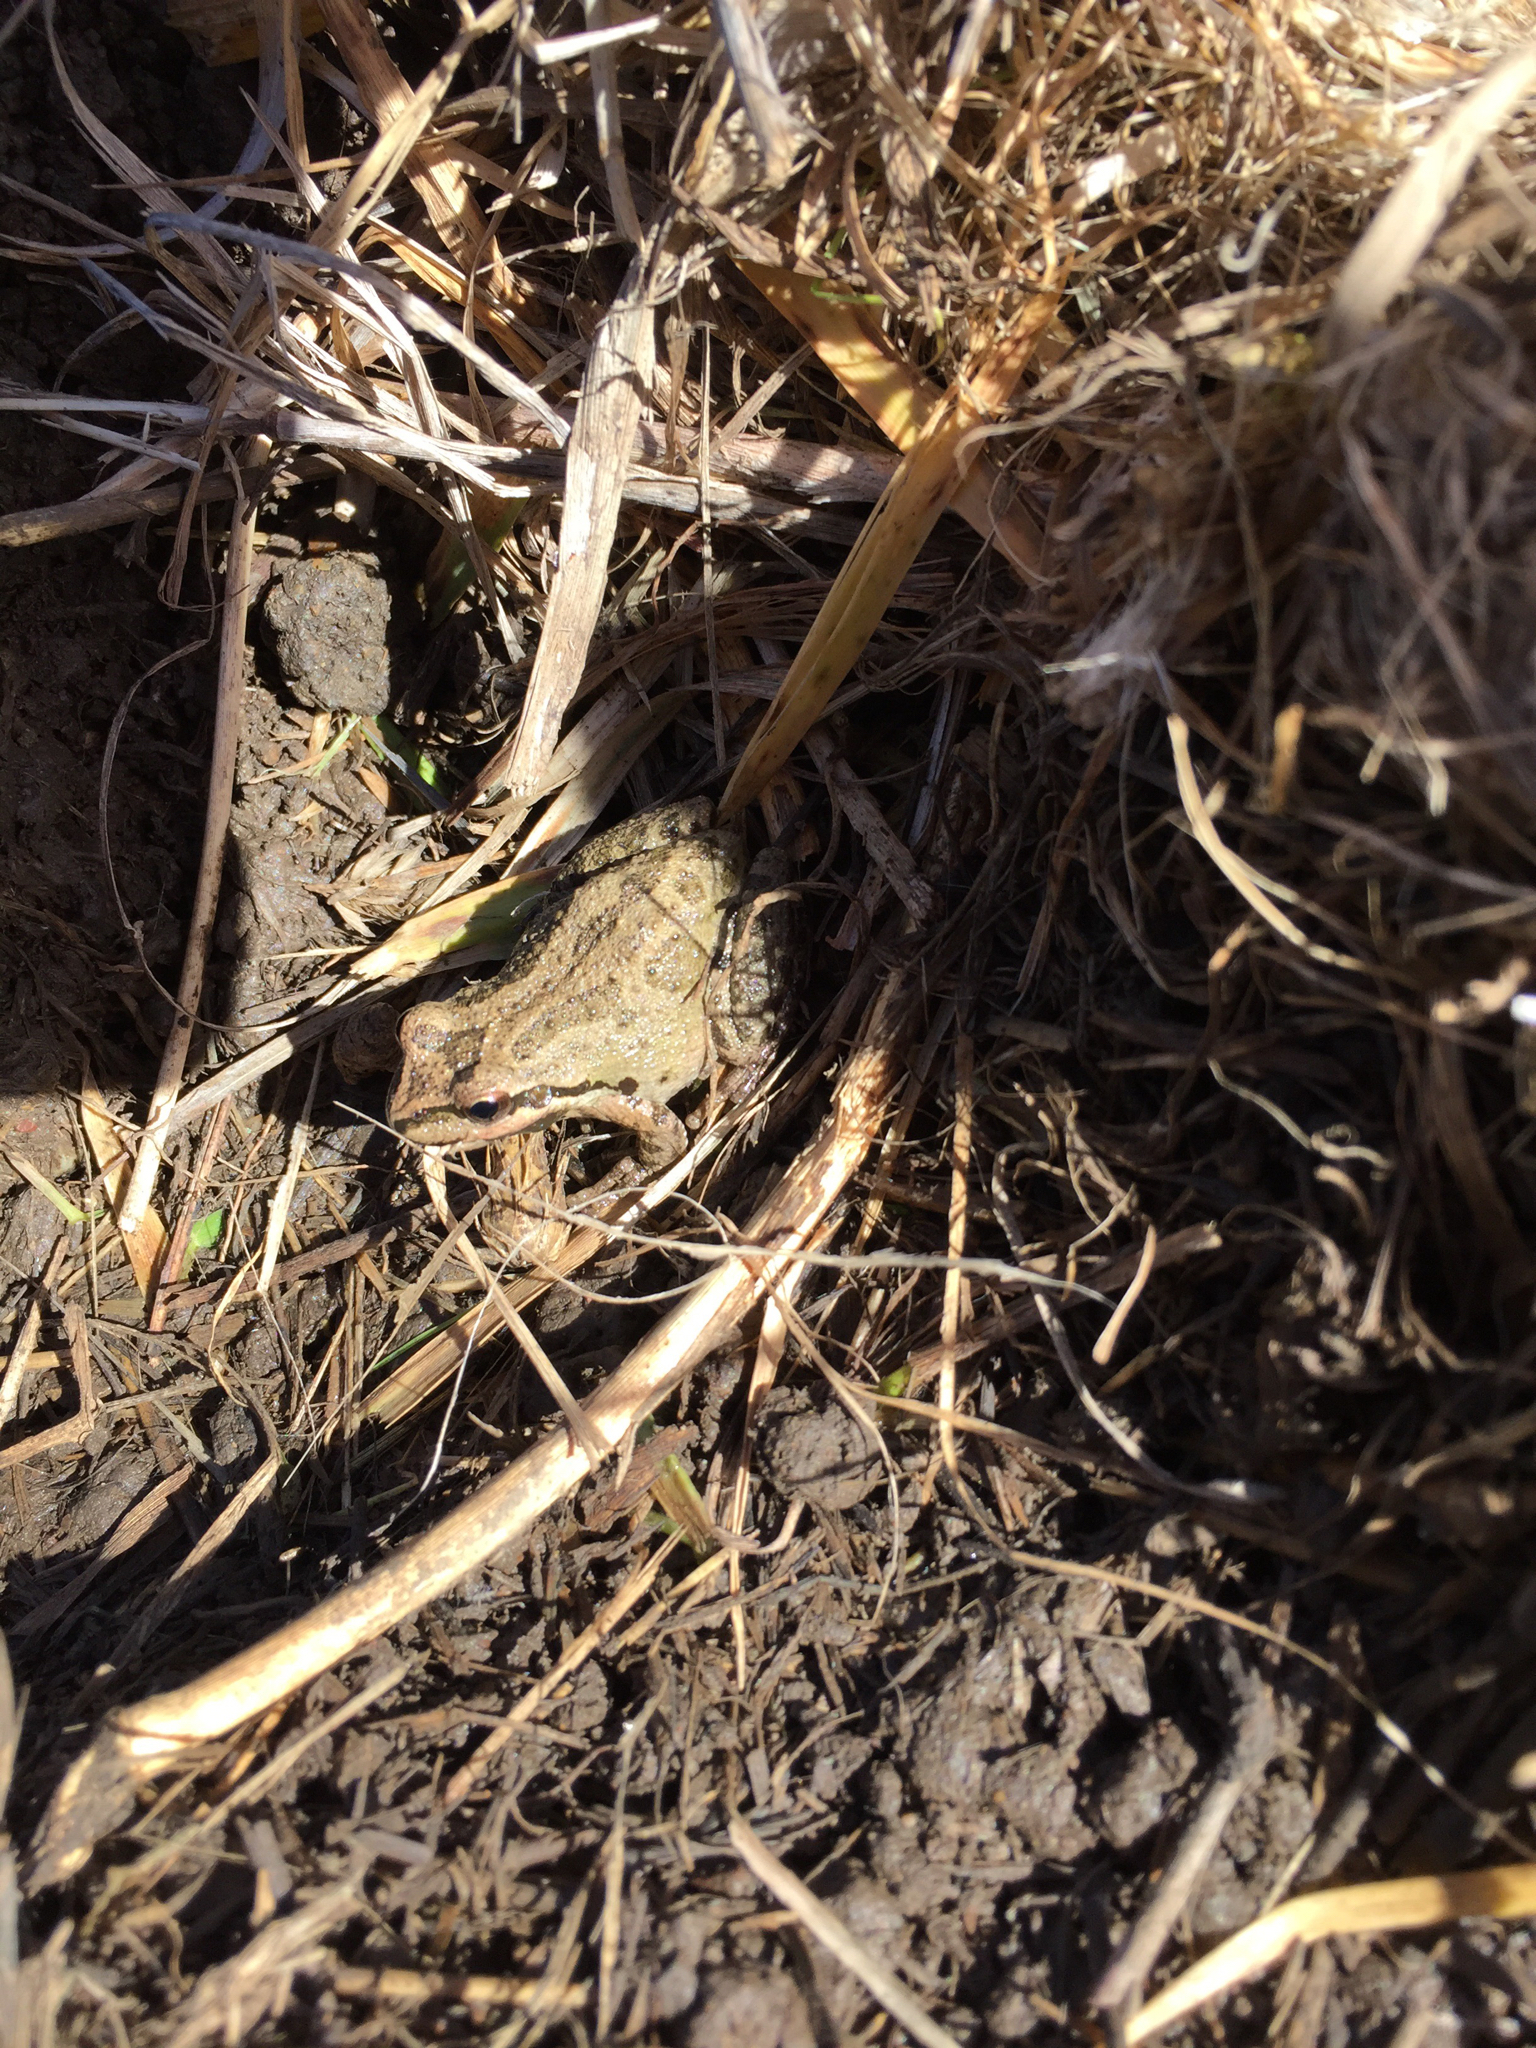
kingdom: Animalia
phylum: Chordata
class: Amphibia
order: Anura
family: Hylidae
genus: Pseudacris
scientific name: Pseudacris regilla
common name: Pacific chorus frog
